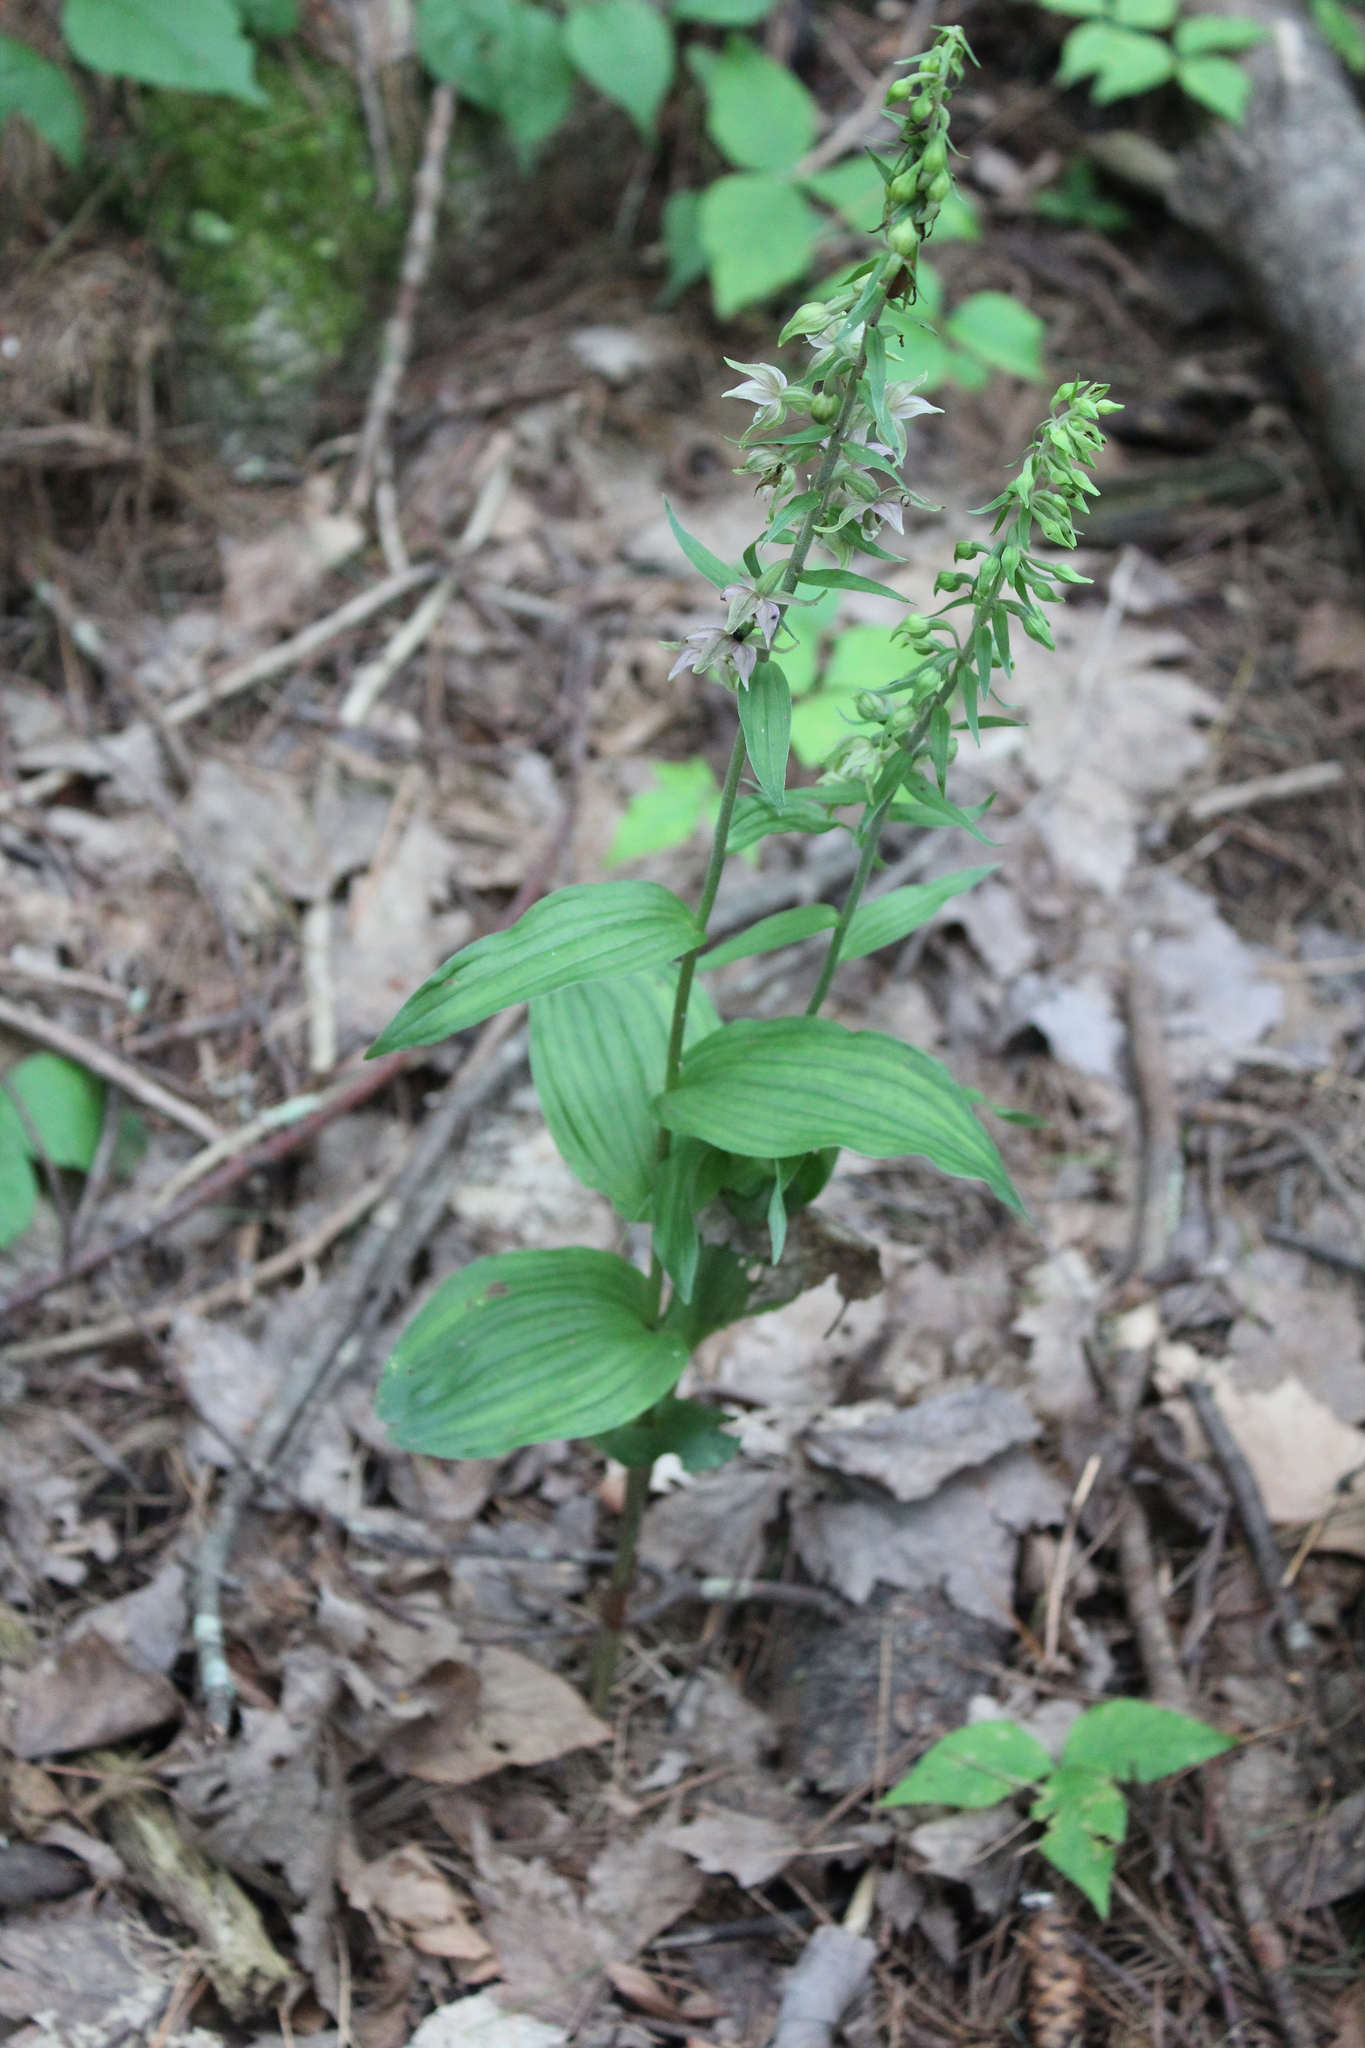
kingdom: Plantae
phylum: Tracheophyta
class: Liliopsida
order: Asparagales
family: Orchidaceae
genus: Epipactis
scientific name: Epipactis helleborine
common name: Broad-leaved helleborine
